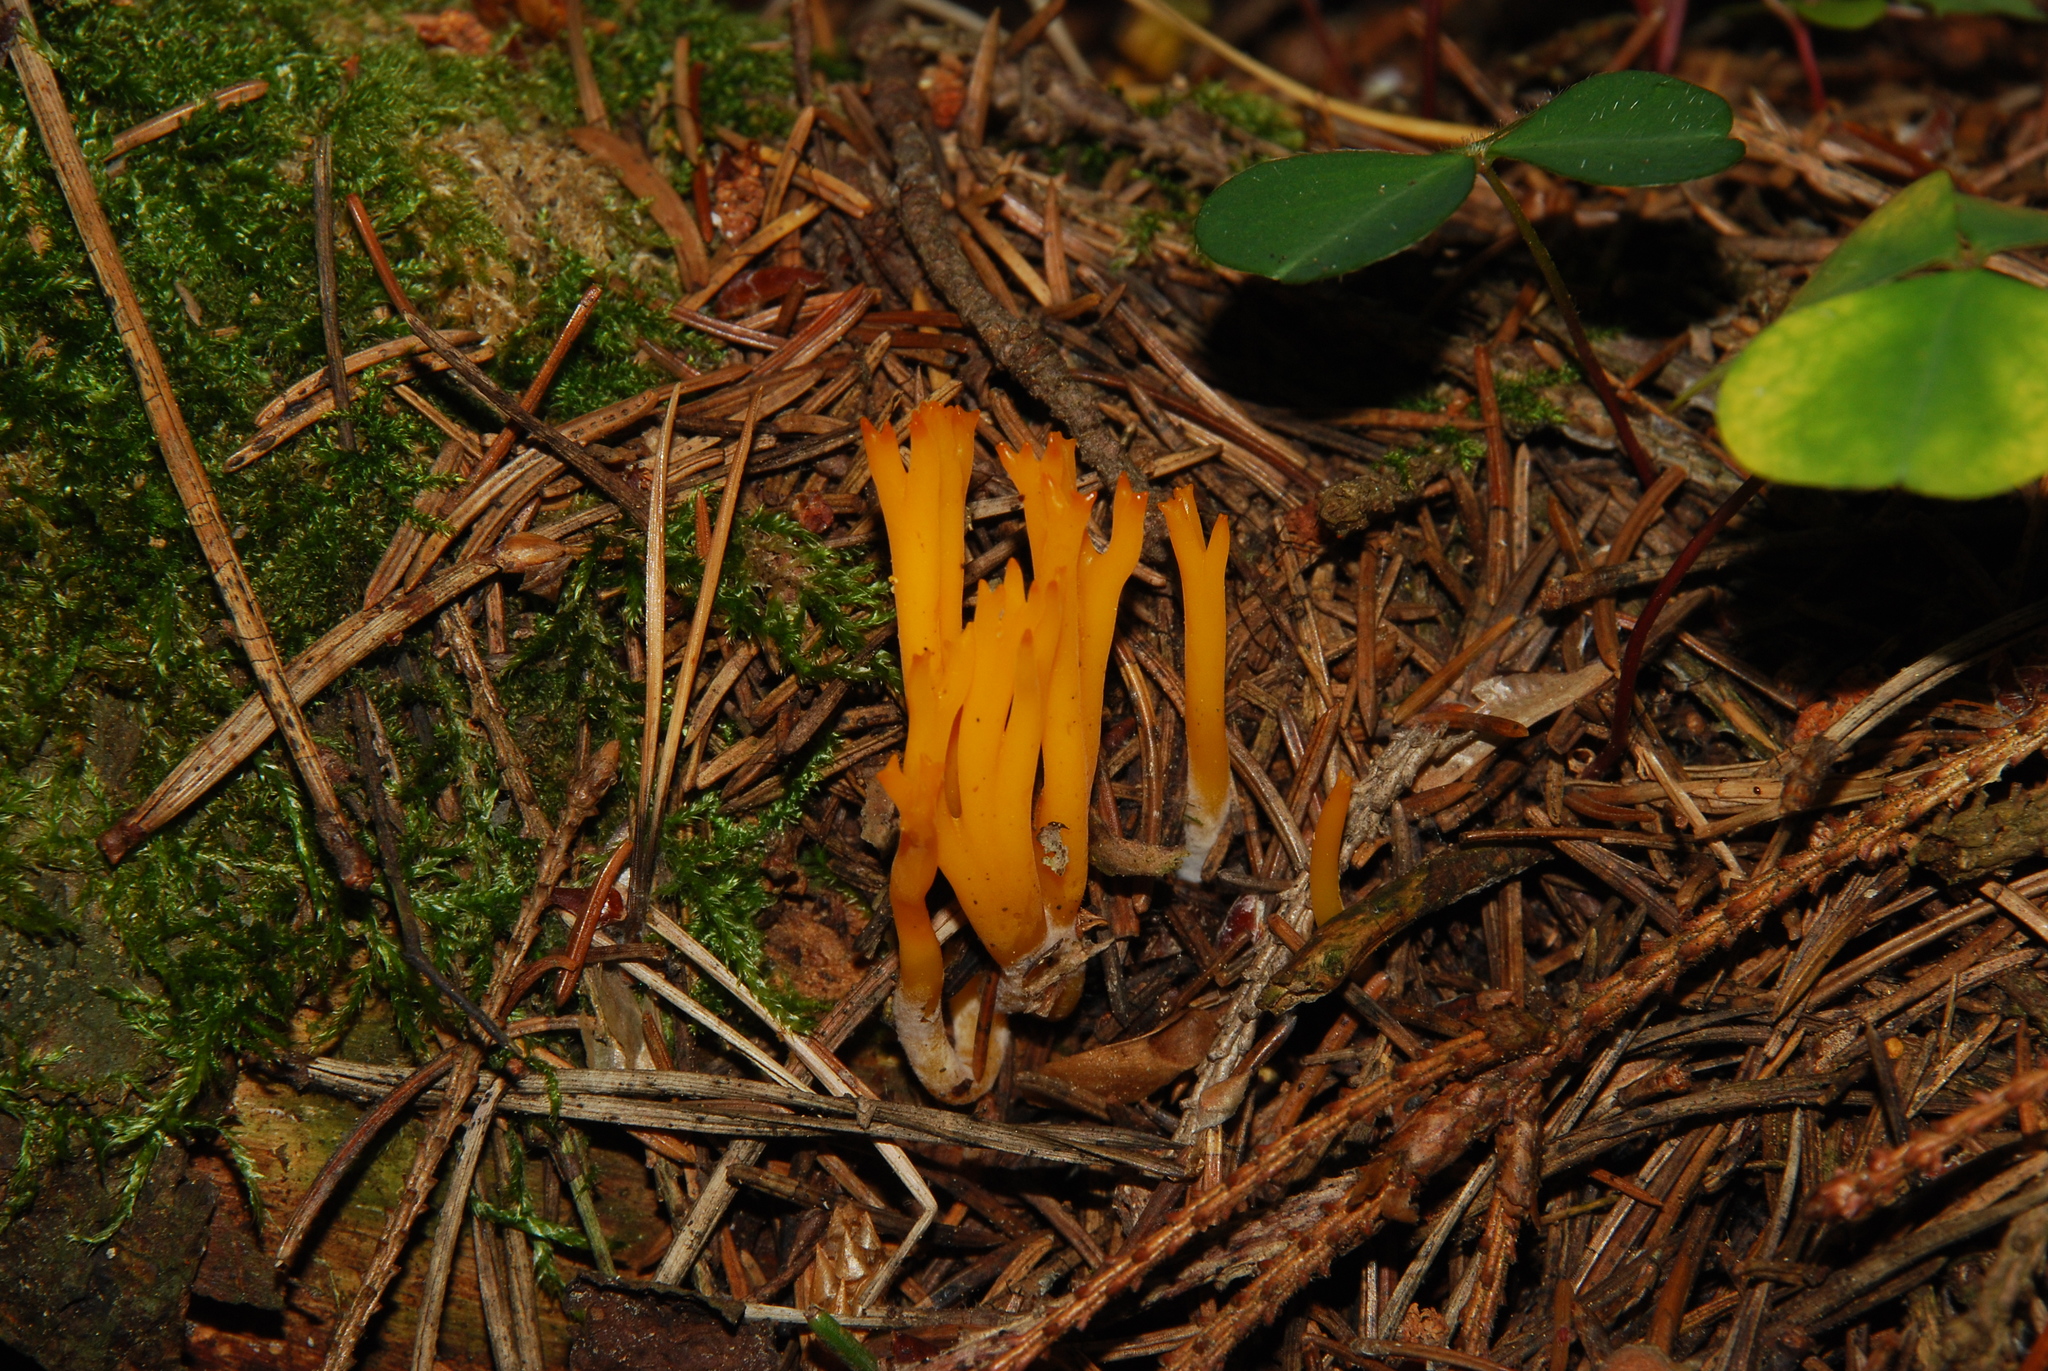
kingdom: Fungi
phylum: Basidiomycota
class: Dacrymycetes
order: Dacrymycetales
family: Dacrymycetaceae
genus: Calocera
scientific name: Calocera viscosa
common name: Yellow stagshorn
